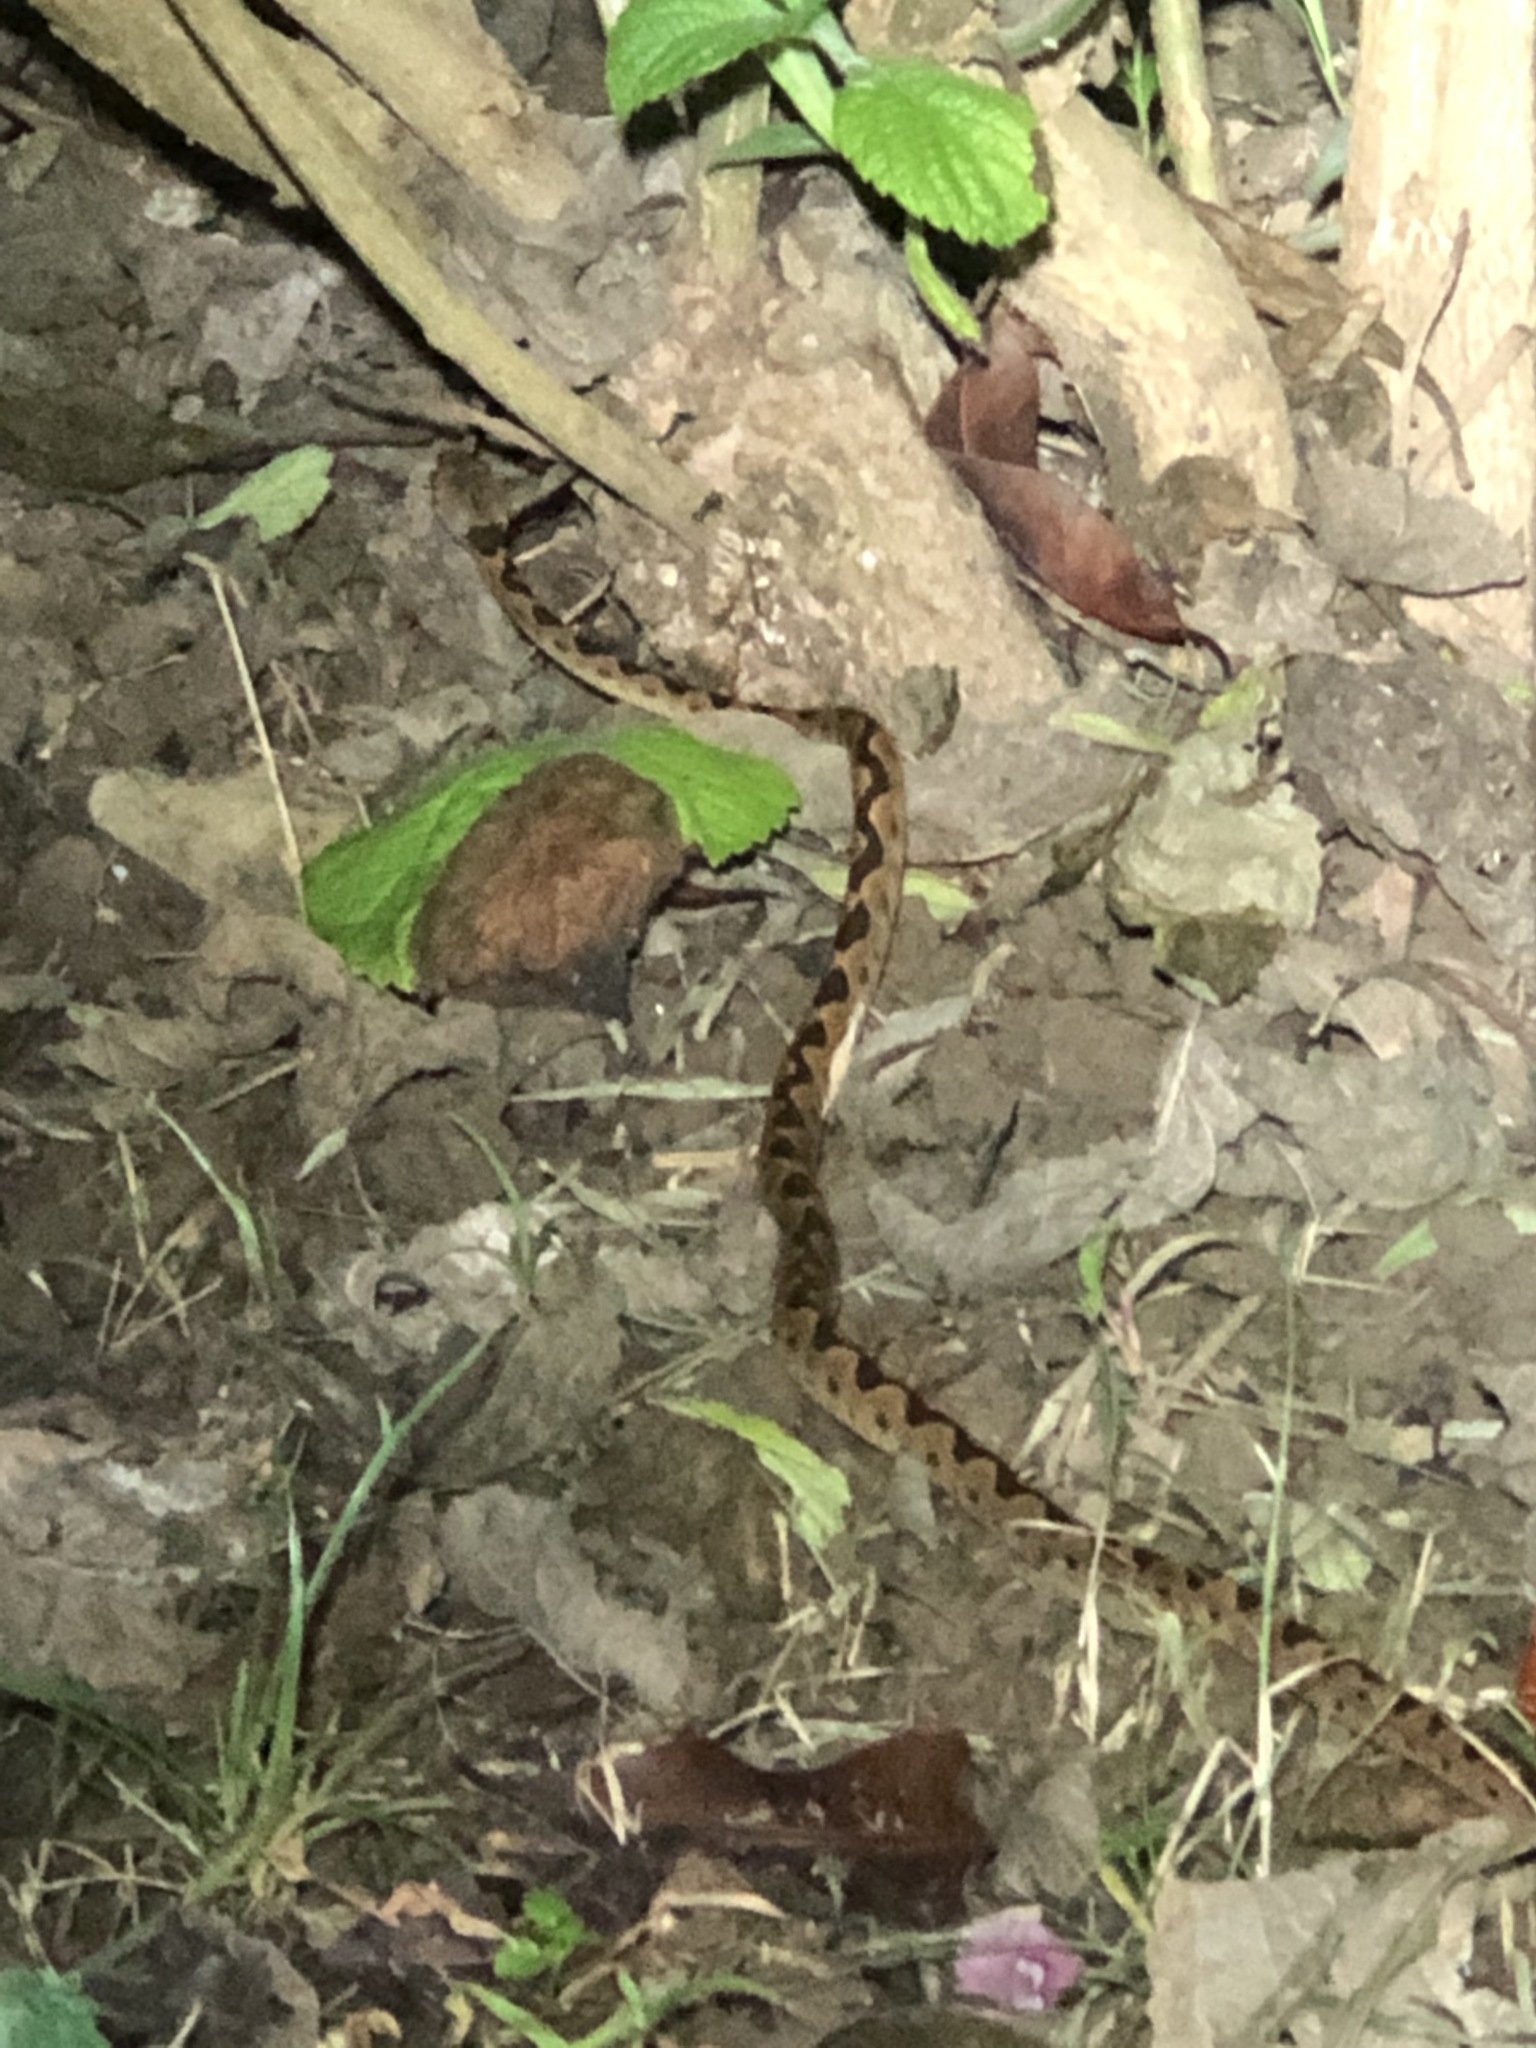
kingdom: Animalia
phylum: Chordata
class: Squamata
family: Colubridae
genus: Leptodeira
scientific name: Leptodeira ornata
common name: Northern cat-eyed snake
